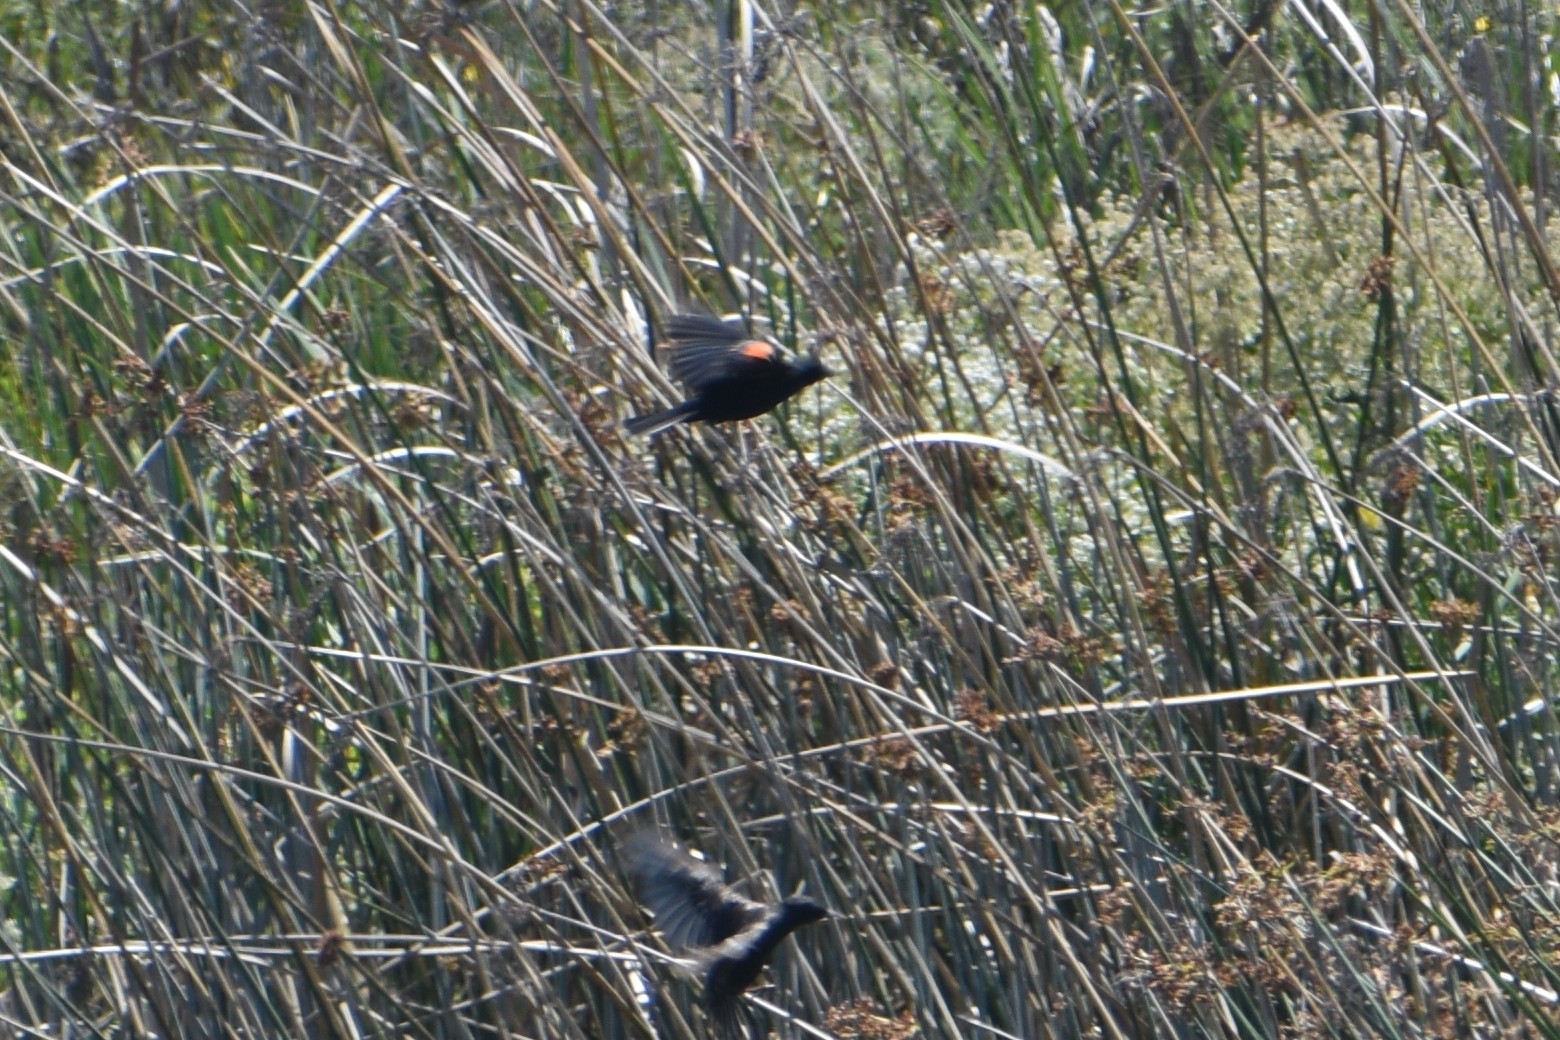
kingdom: Animalia
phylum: Chordata
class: Aves
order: Passeriformes
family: Icteridae
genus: Agelaius
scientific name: Agelaius phoeniceus
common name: Red-winged blackbird
